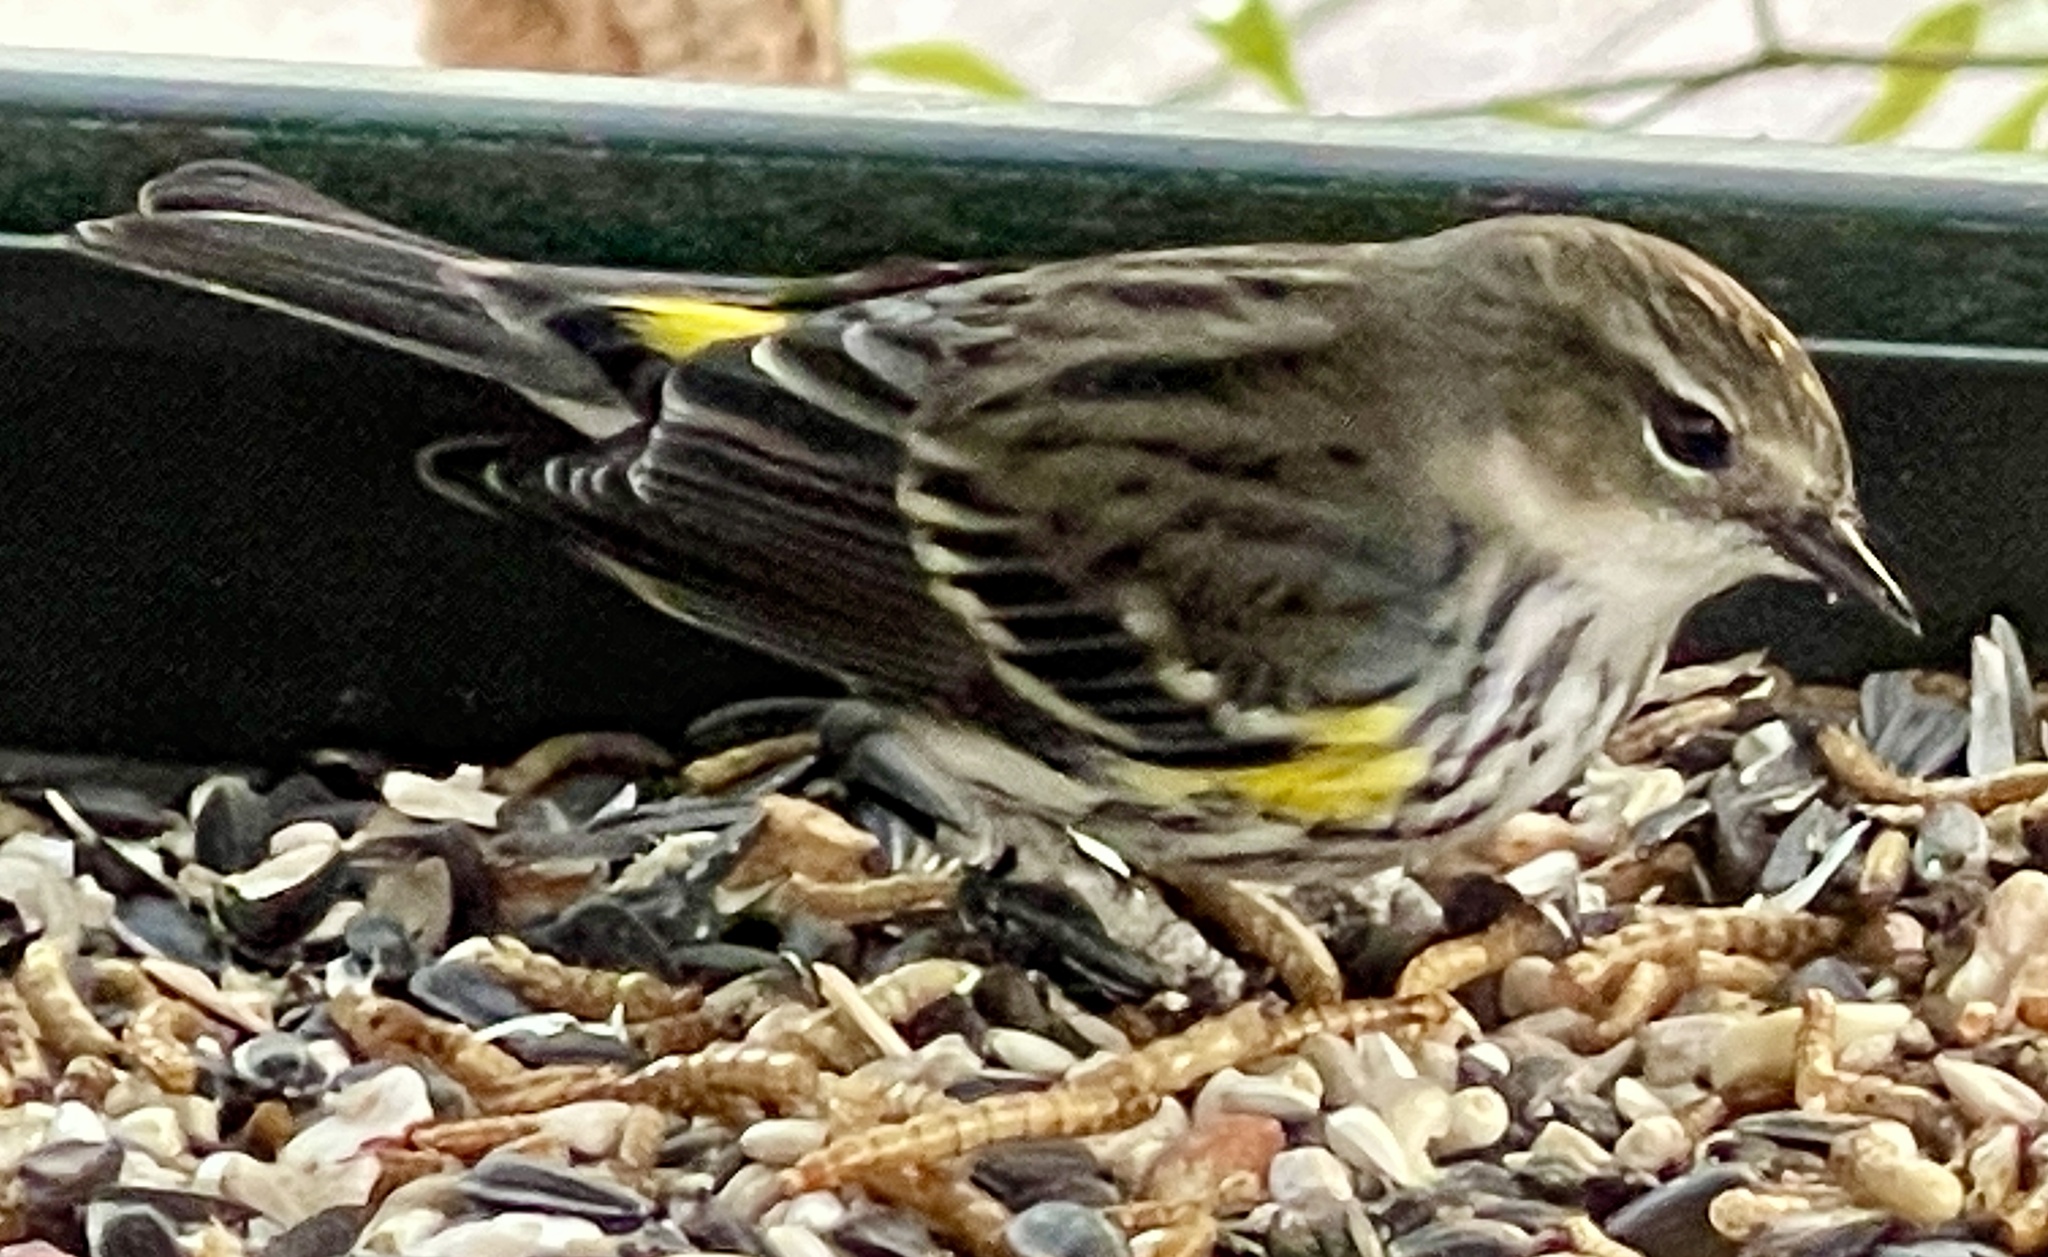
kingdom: Animalia
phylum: Chordata
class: Aves
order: Passeriformes
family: Parulidae
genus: Setophaga
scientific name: Setophaga coronata
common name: Myrtle warbler
